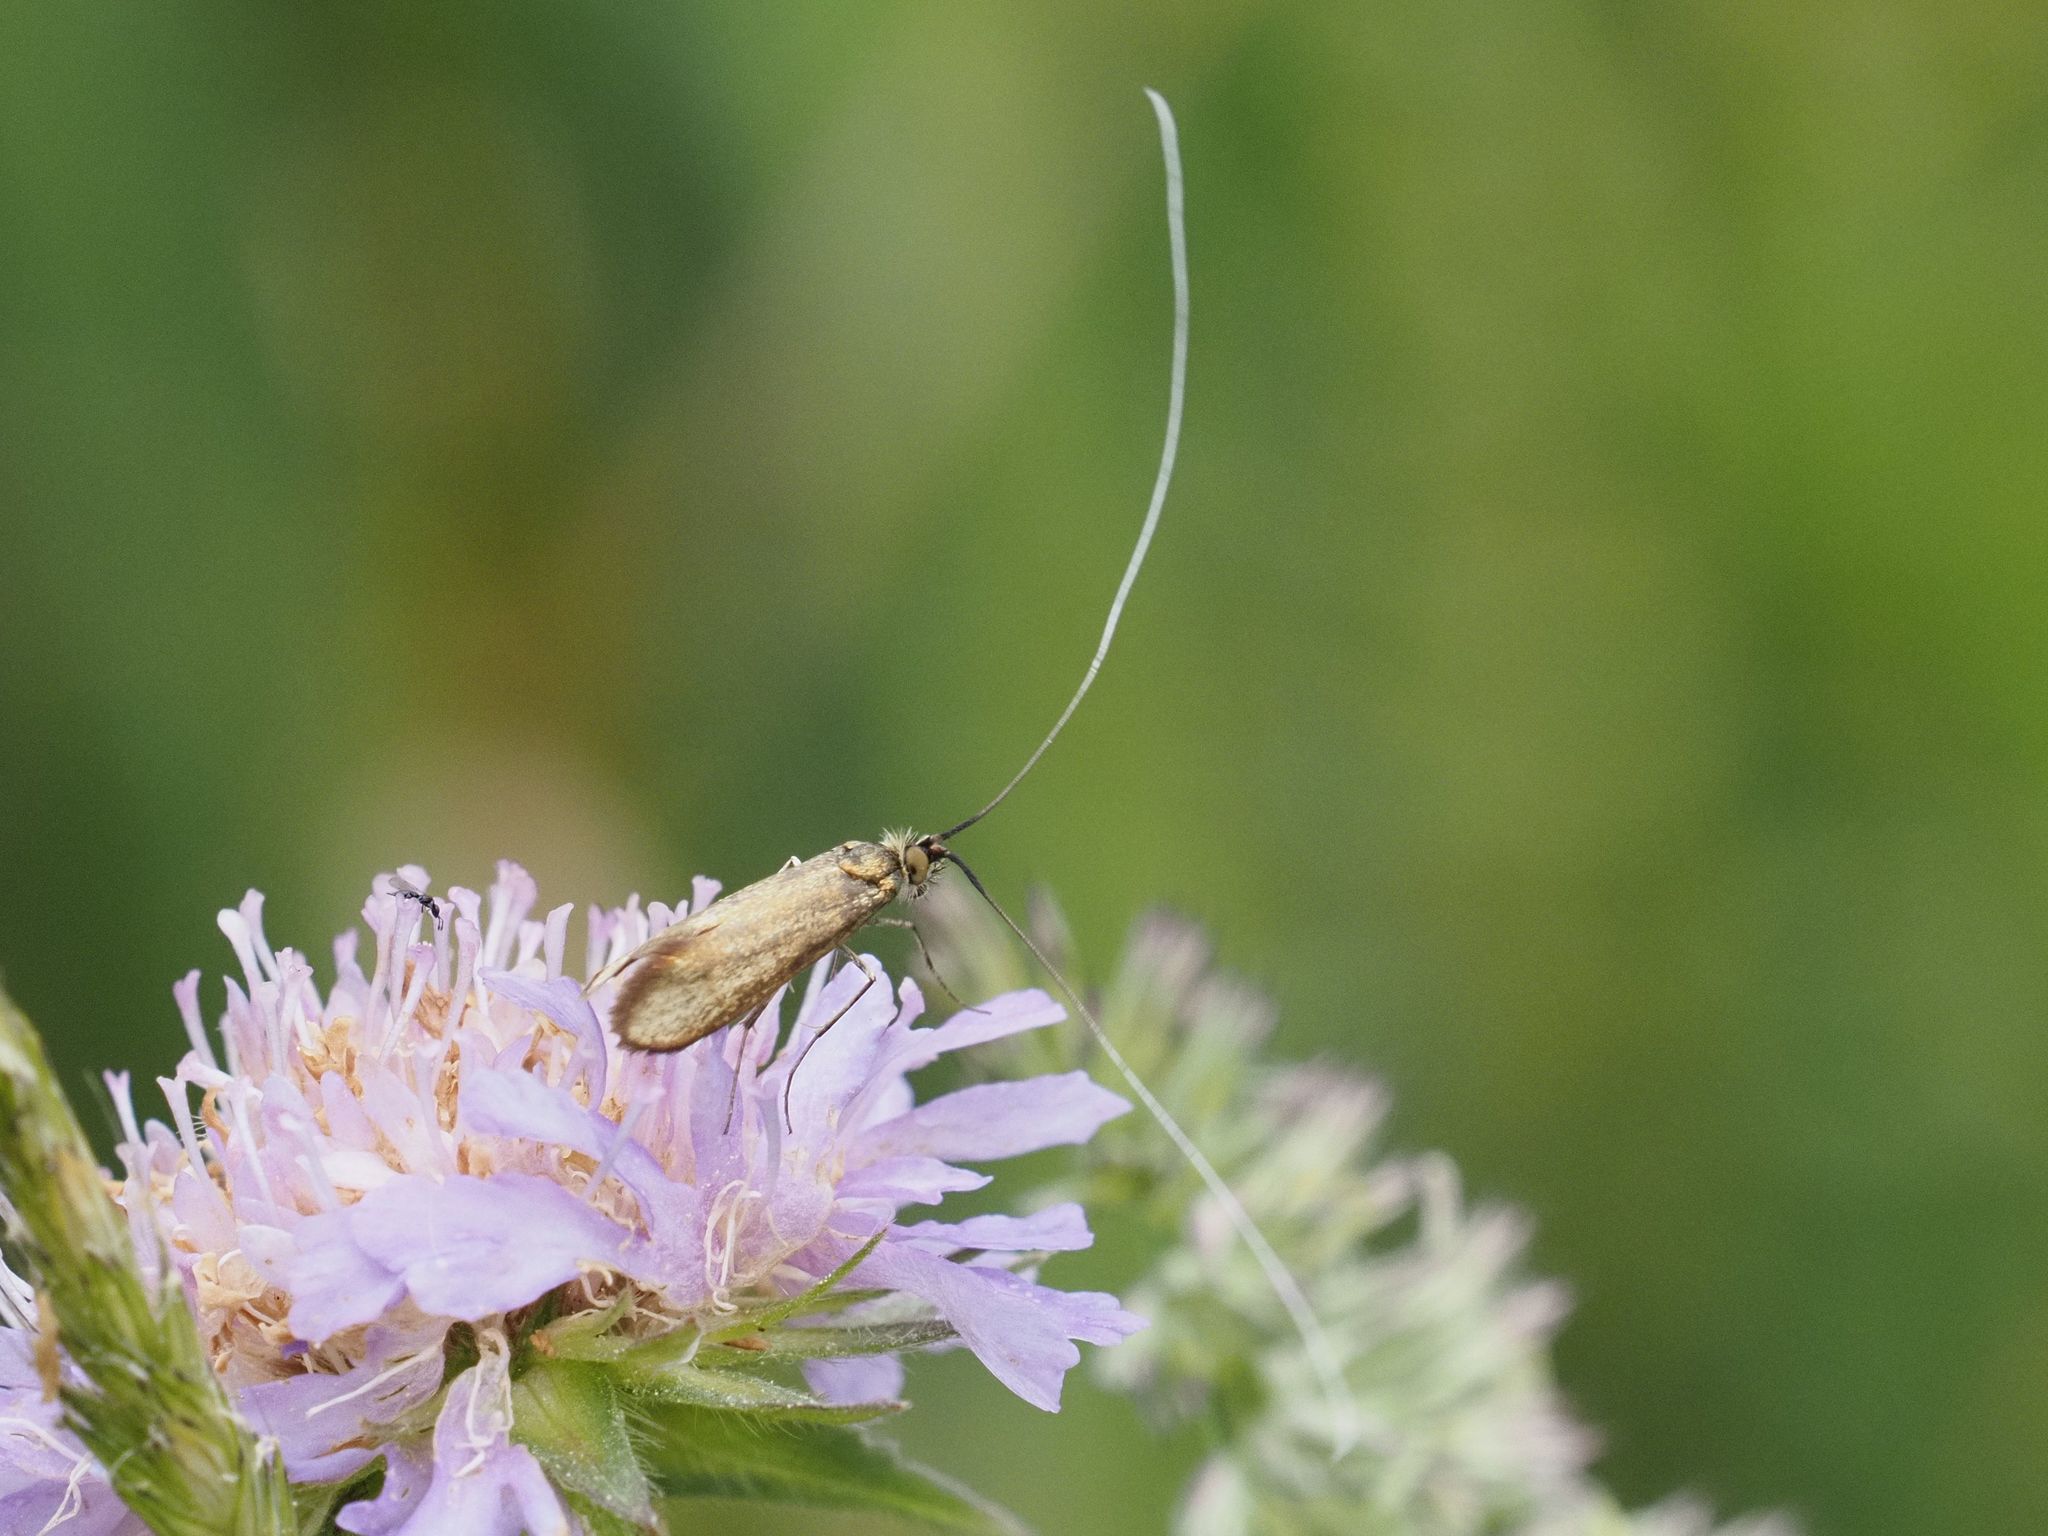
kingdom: Animalia
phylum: Arthropoda
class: Insecta
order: Lepidoptera
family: Adelidae
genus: Nemophora
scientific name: Nemophora metallica
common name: Brassy long-horn
